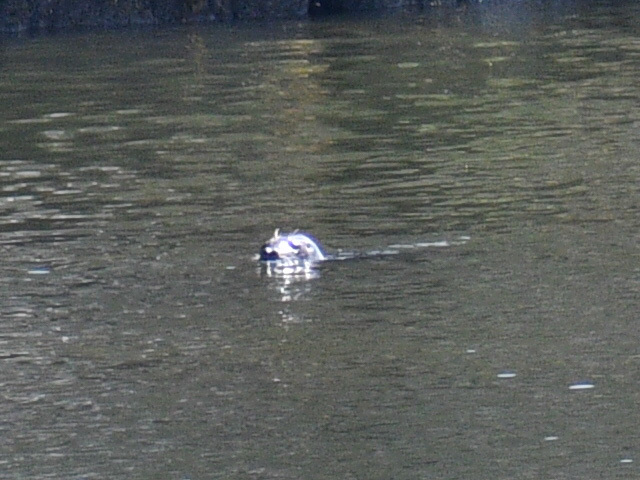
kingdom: Animalia
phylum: Chordata
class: Mammalia
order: Carnivora
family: Phocidae
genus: Phoca
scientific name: Phoca vitulina
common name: Harbor seal
